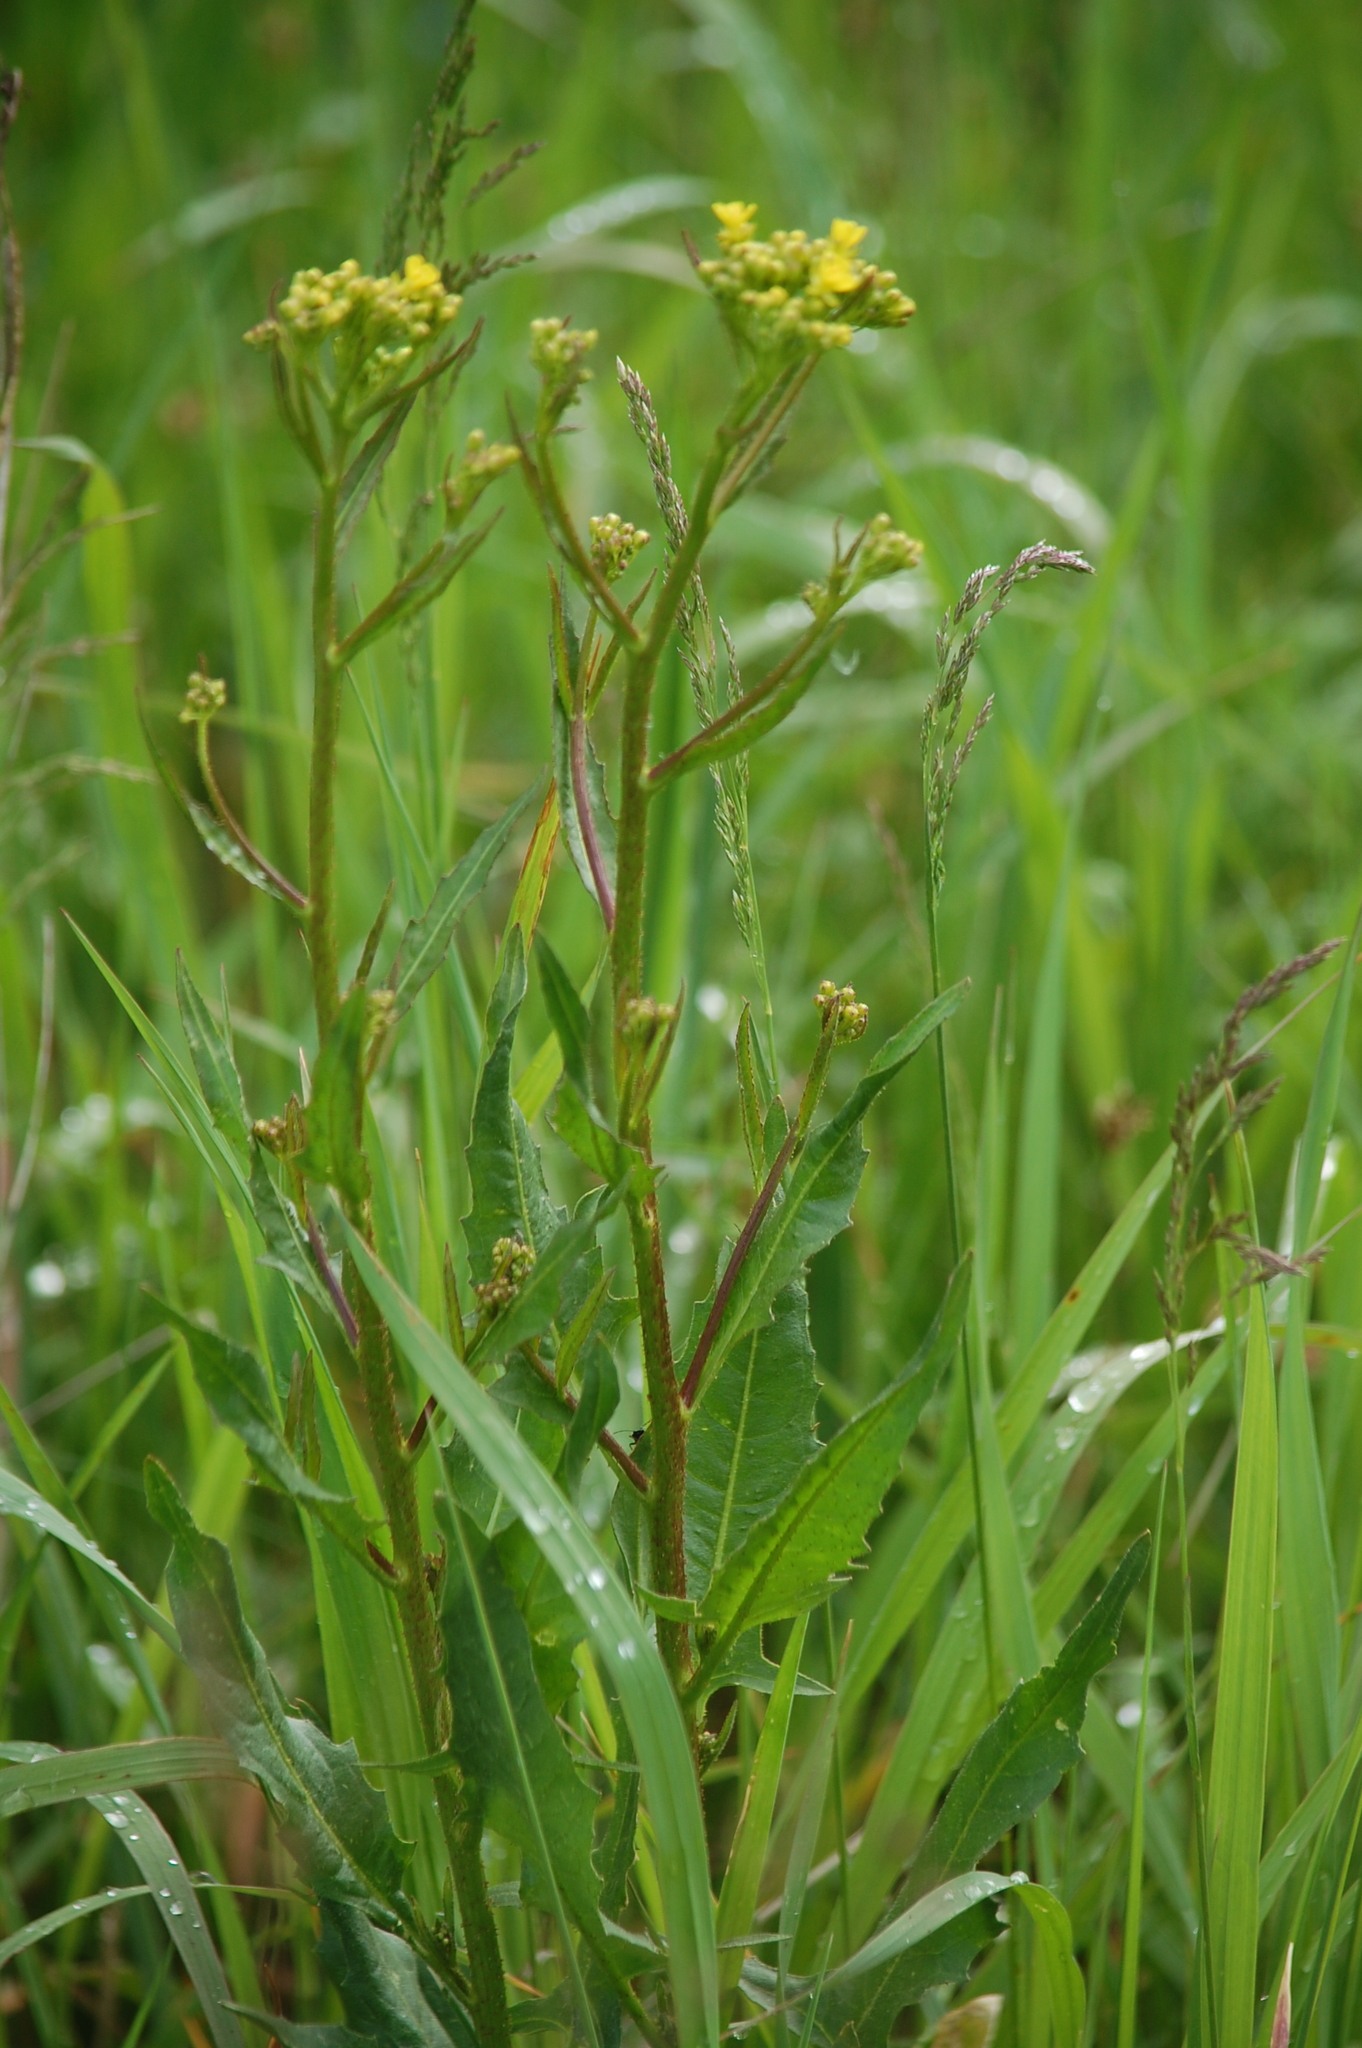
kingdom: Plantae
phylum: Tracheophyta
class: Magnoliopsida
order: Brassicales
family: Brassicaceae
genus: Bunias
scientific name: Bunias orientalis
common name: Warty-cabbage
